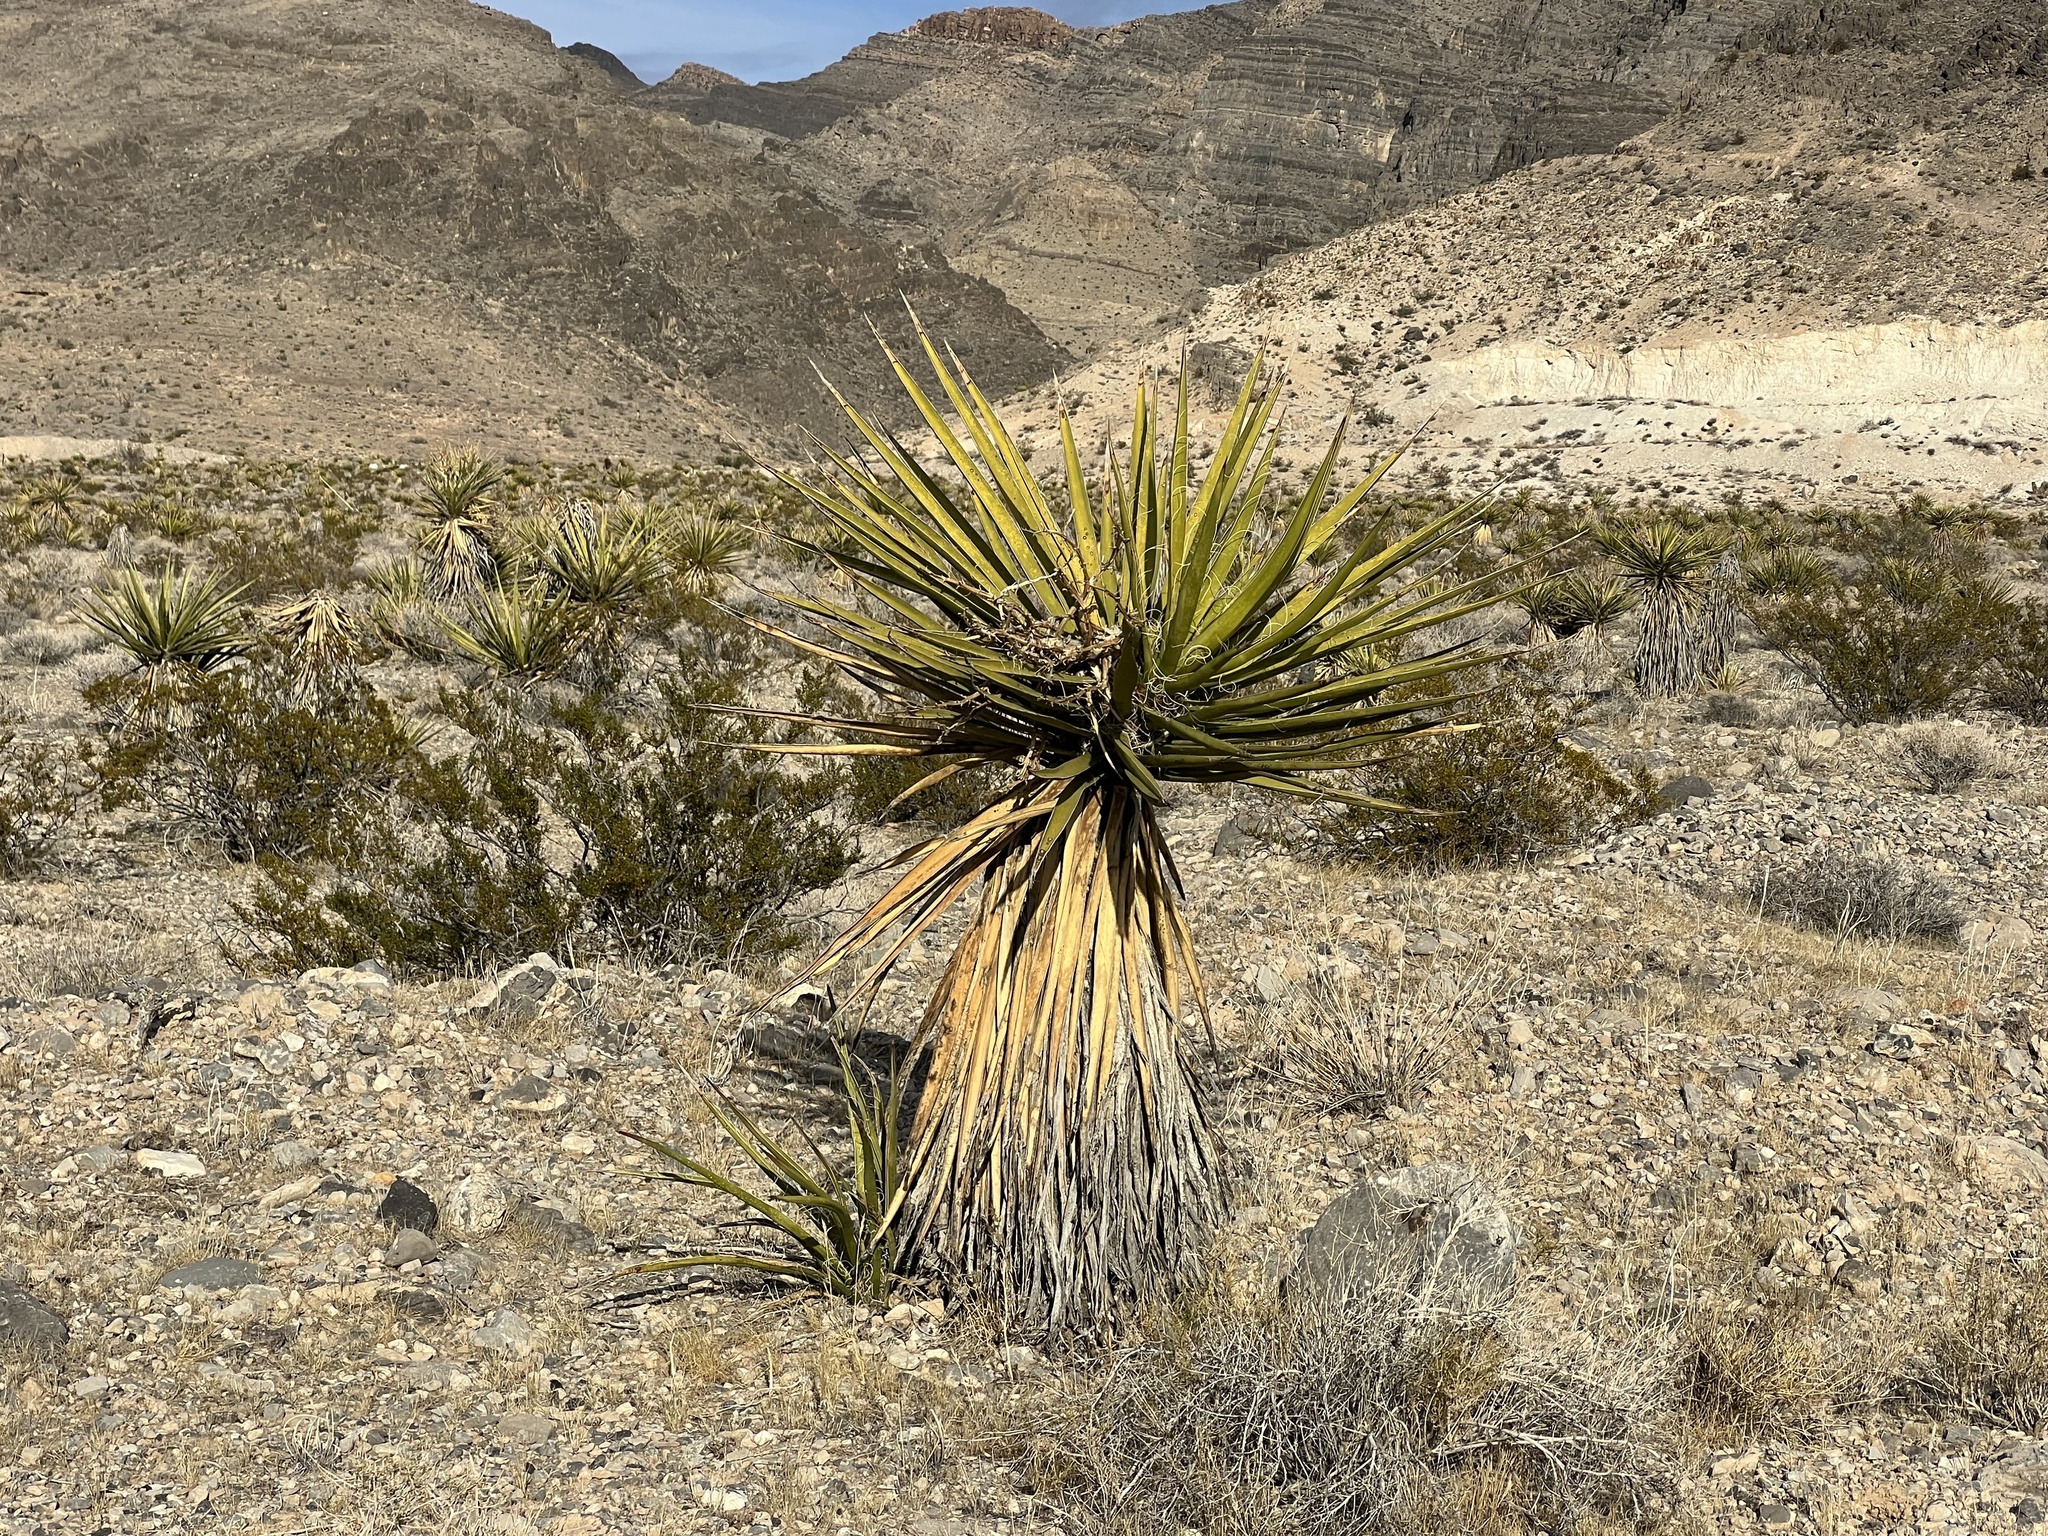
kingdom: Plantae
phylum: Tracheophyta
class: Liliopsida
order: Asparagales
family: Asparagaceae
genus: Yucca
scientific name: Yucca schidigera
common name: Mojave yucca
